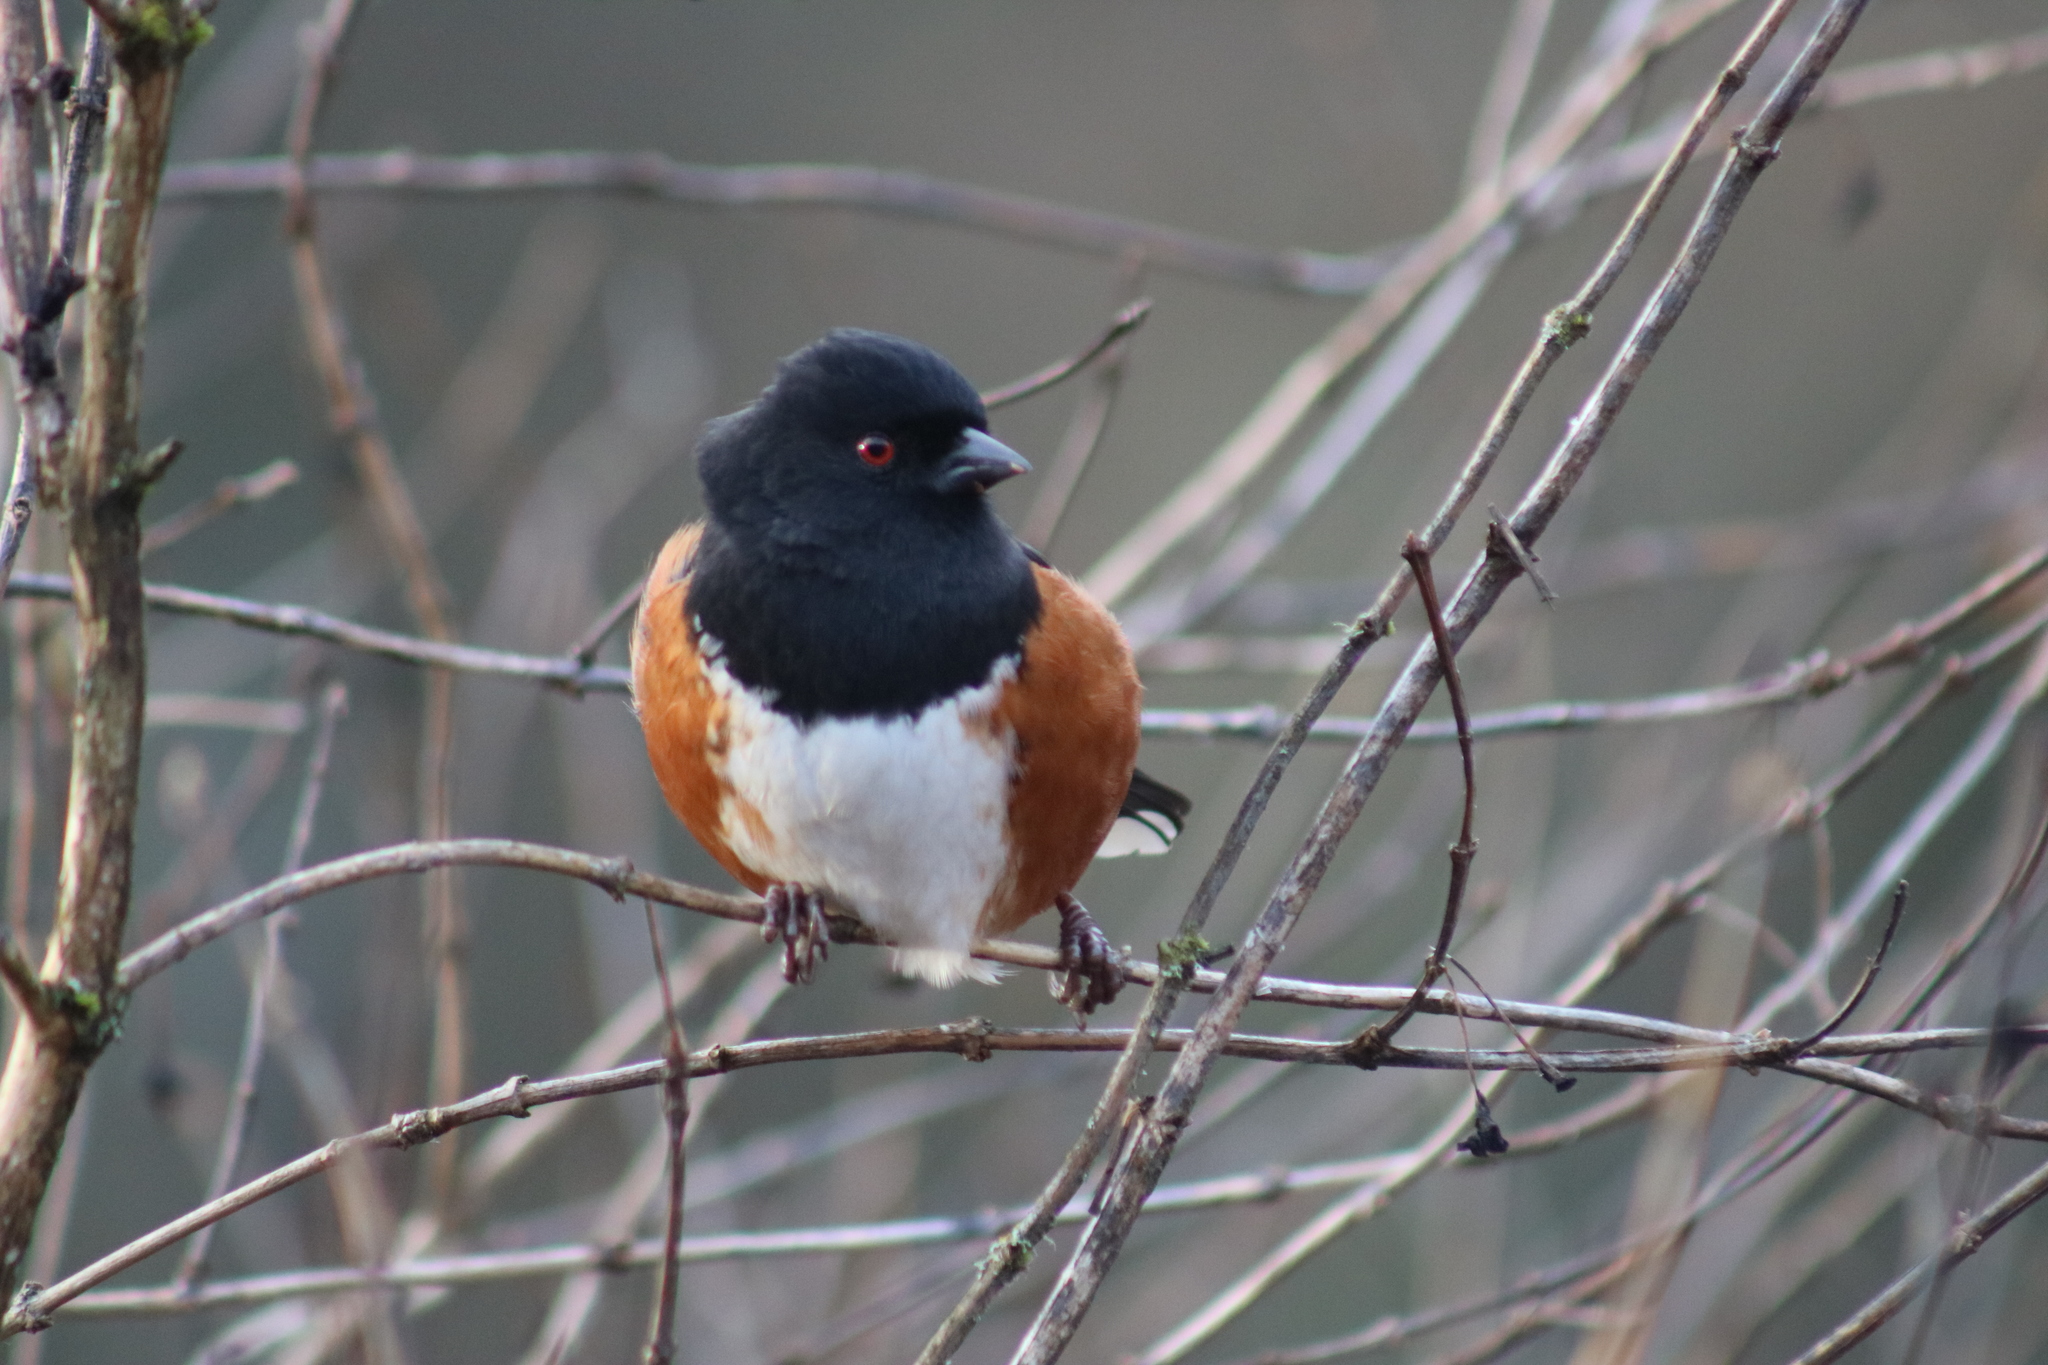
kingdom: Animalia
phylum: Chordata
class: Aves
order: Passeriformes
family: Passerellidae
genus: Pipilo
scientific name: Pipilo maculatus
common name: Spotted towhee
